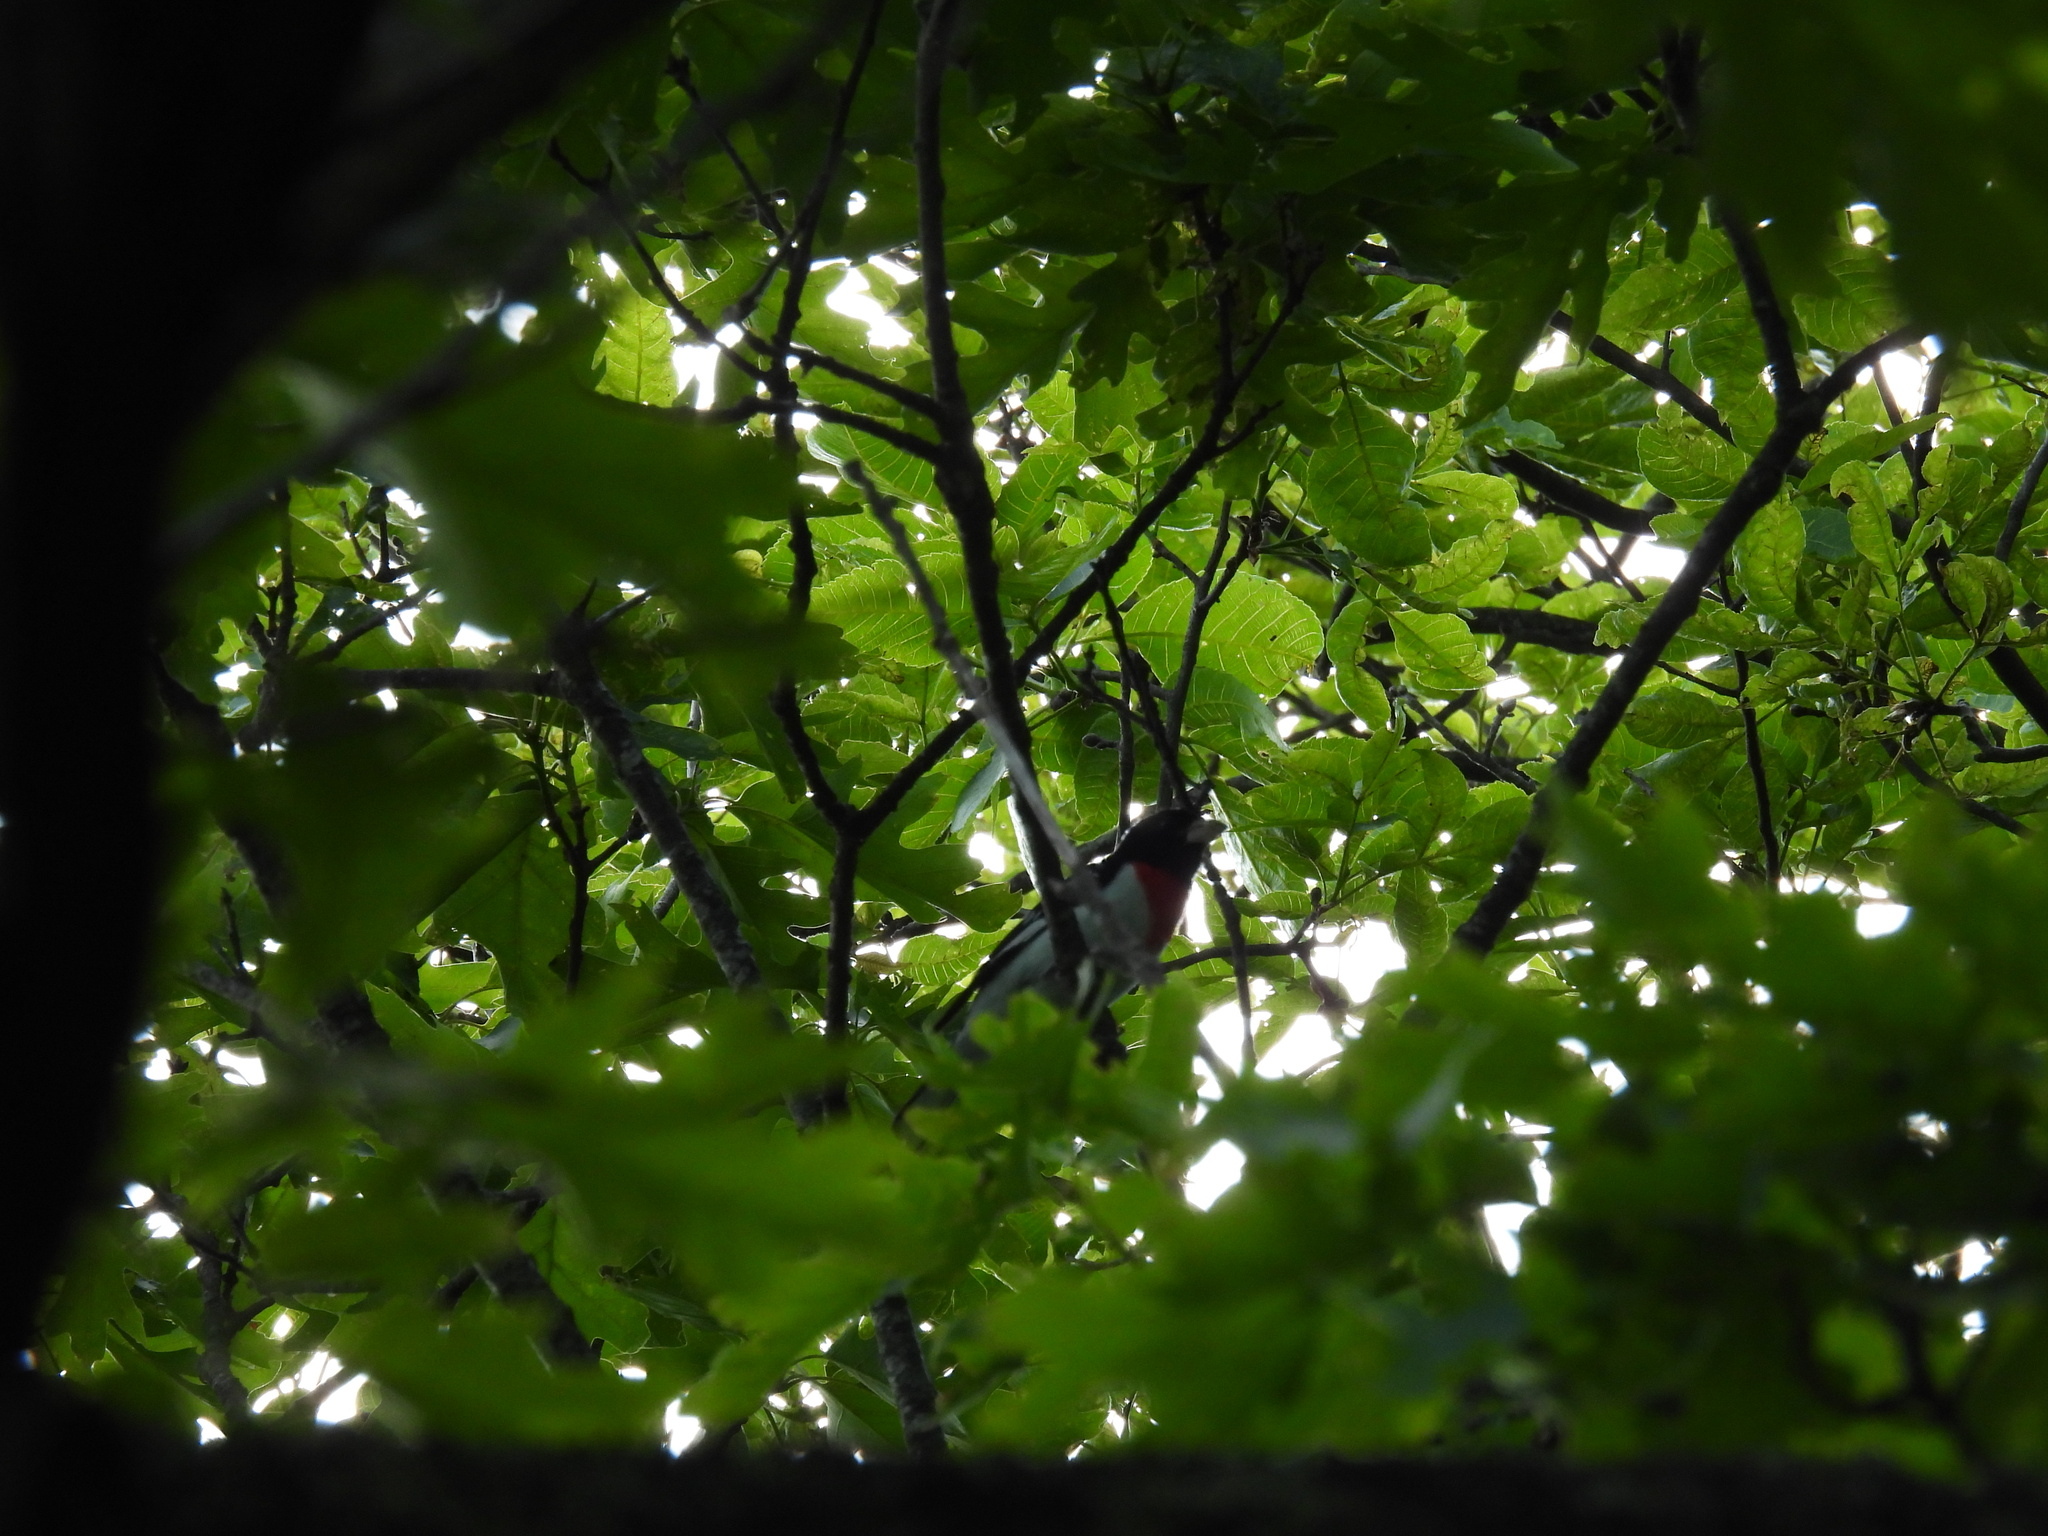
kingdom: Animalia
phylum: Chordata
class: Aves
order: Passeriformes
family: Cardinalidae
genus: Pheucticus
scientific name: Pheucticus ludovicianus
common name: Rose-breasted grosbeak
